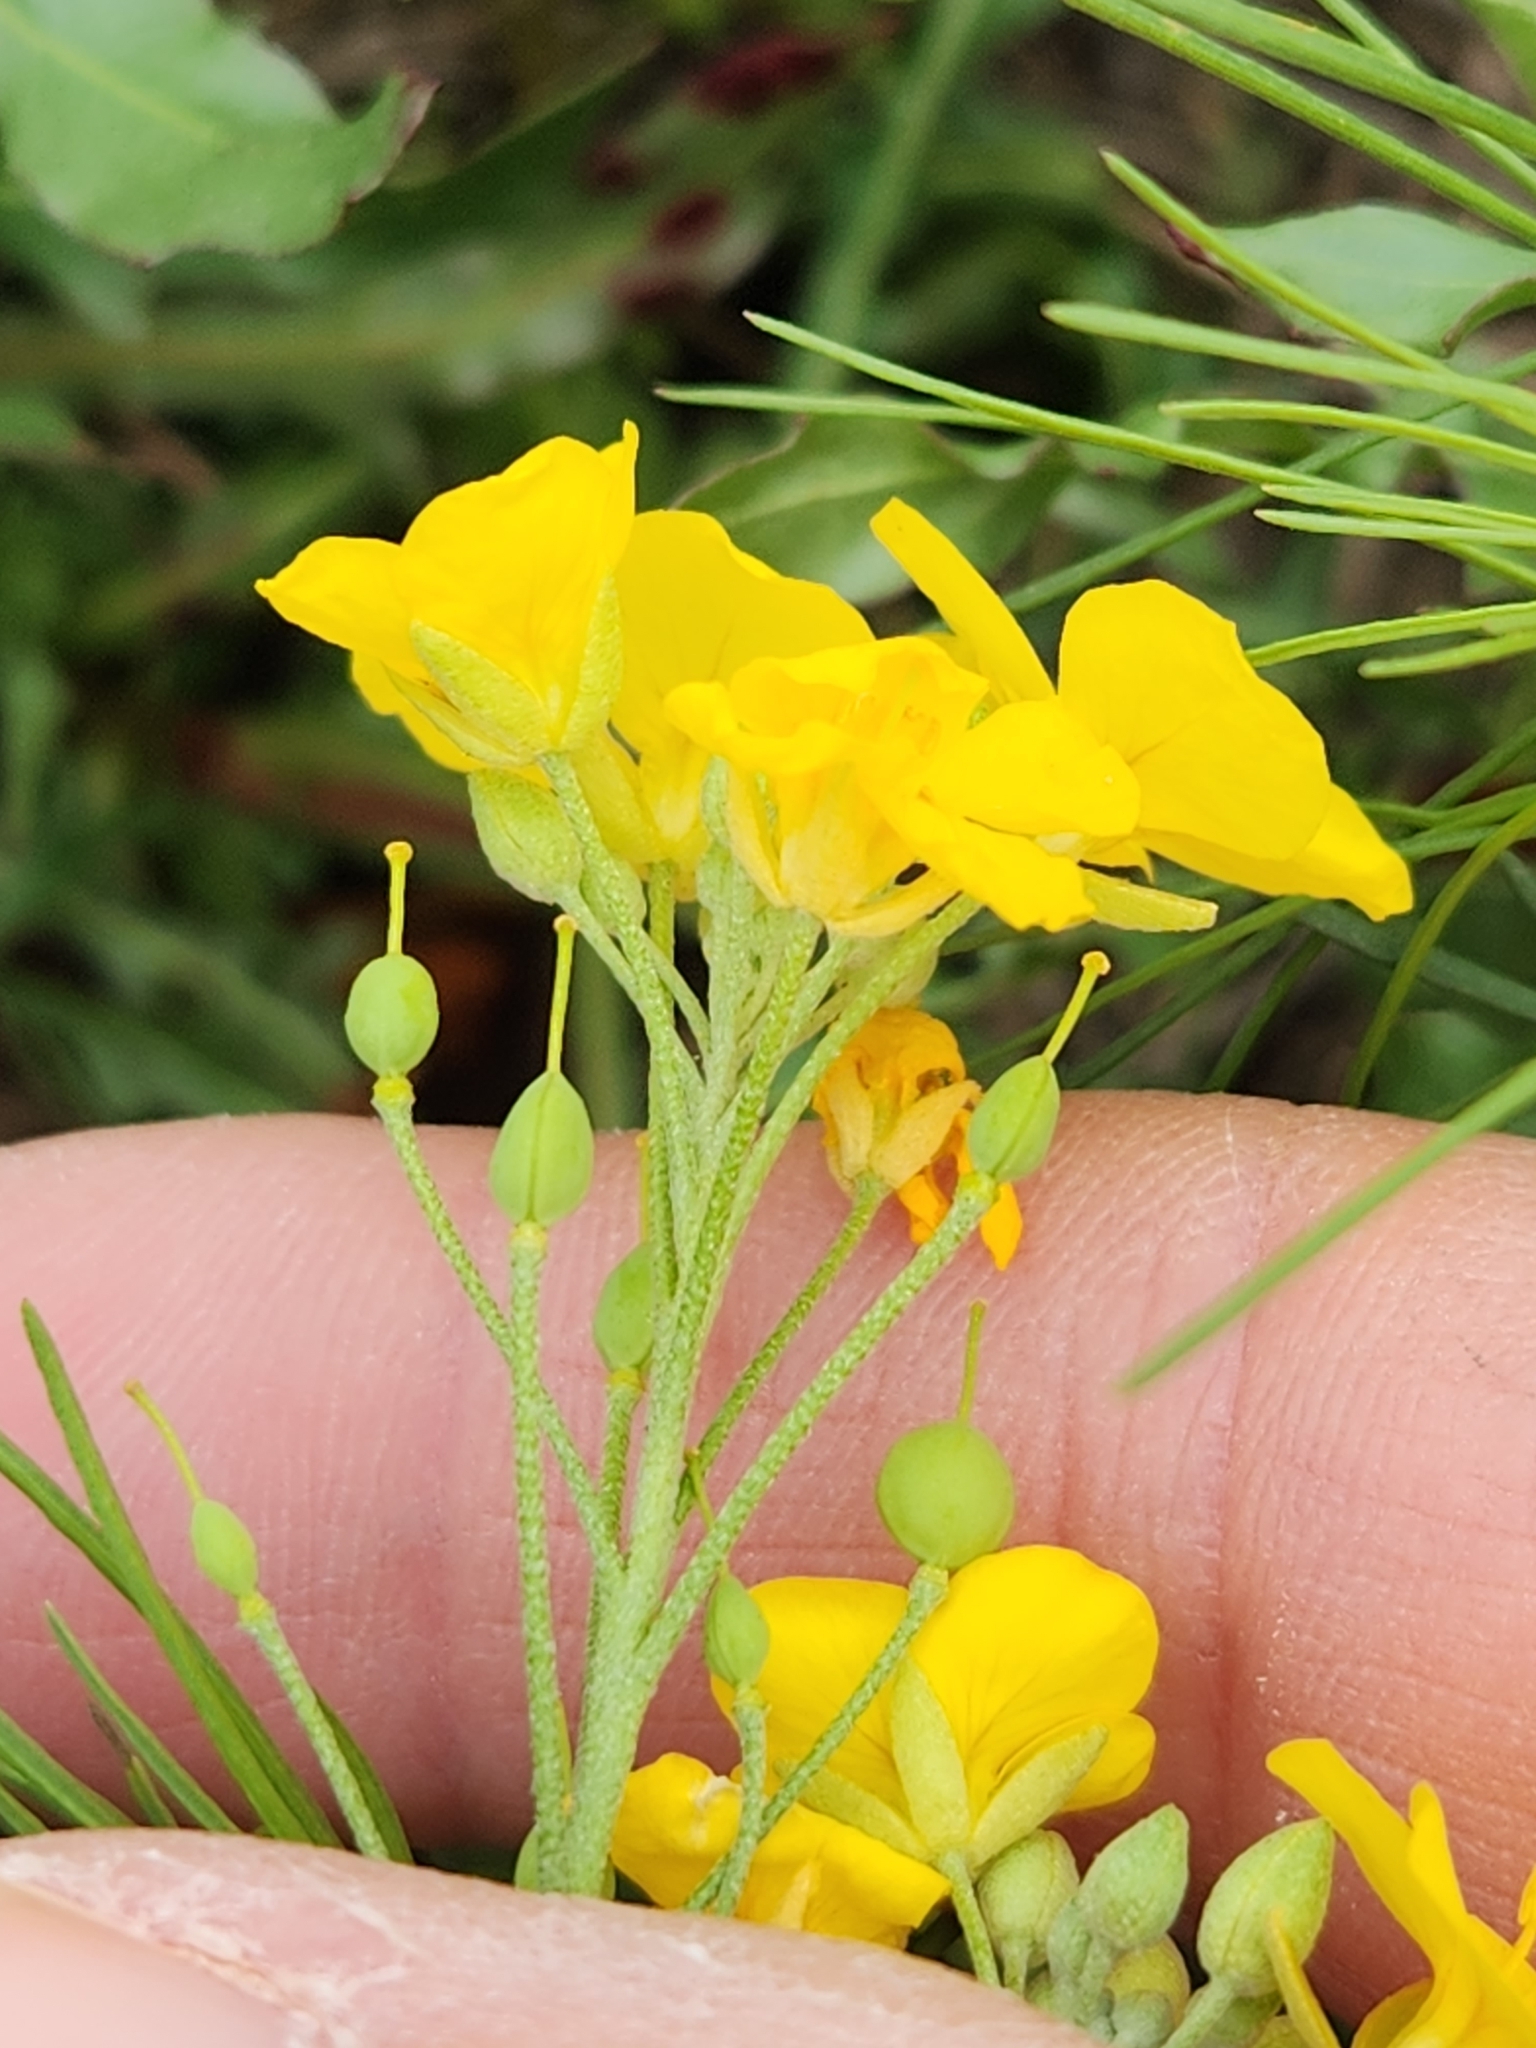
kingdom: Plantae
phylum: Tracheophyta
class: Magnoliopsida
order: Brassicales
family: Brassicaceae
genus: Physaria
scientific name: Physaria gracilis
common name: Spreading bladderpod
